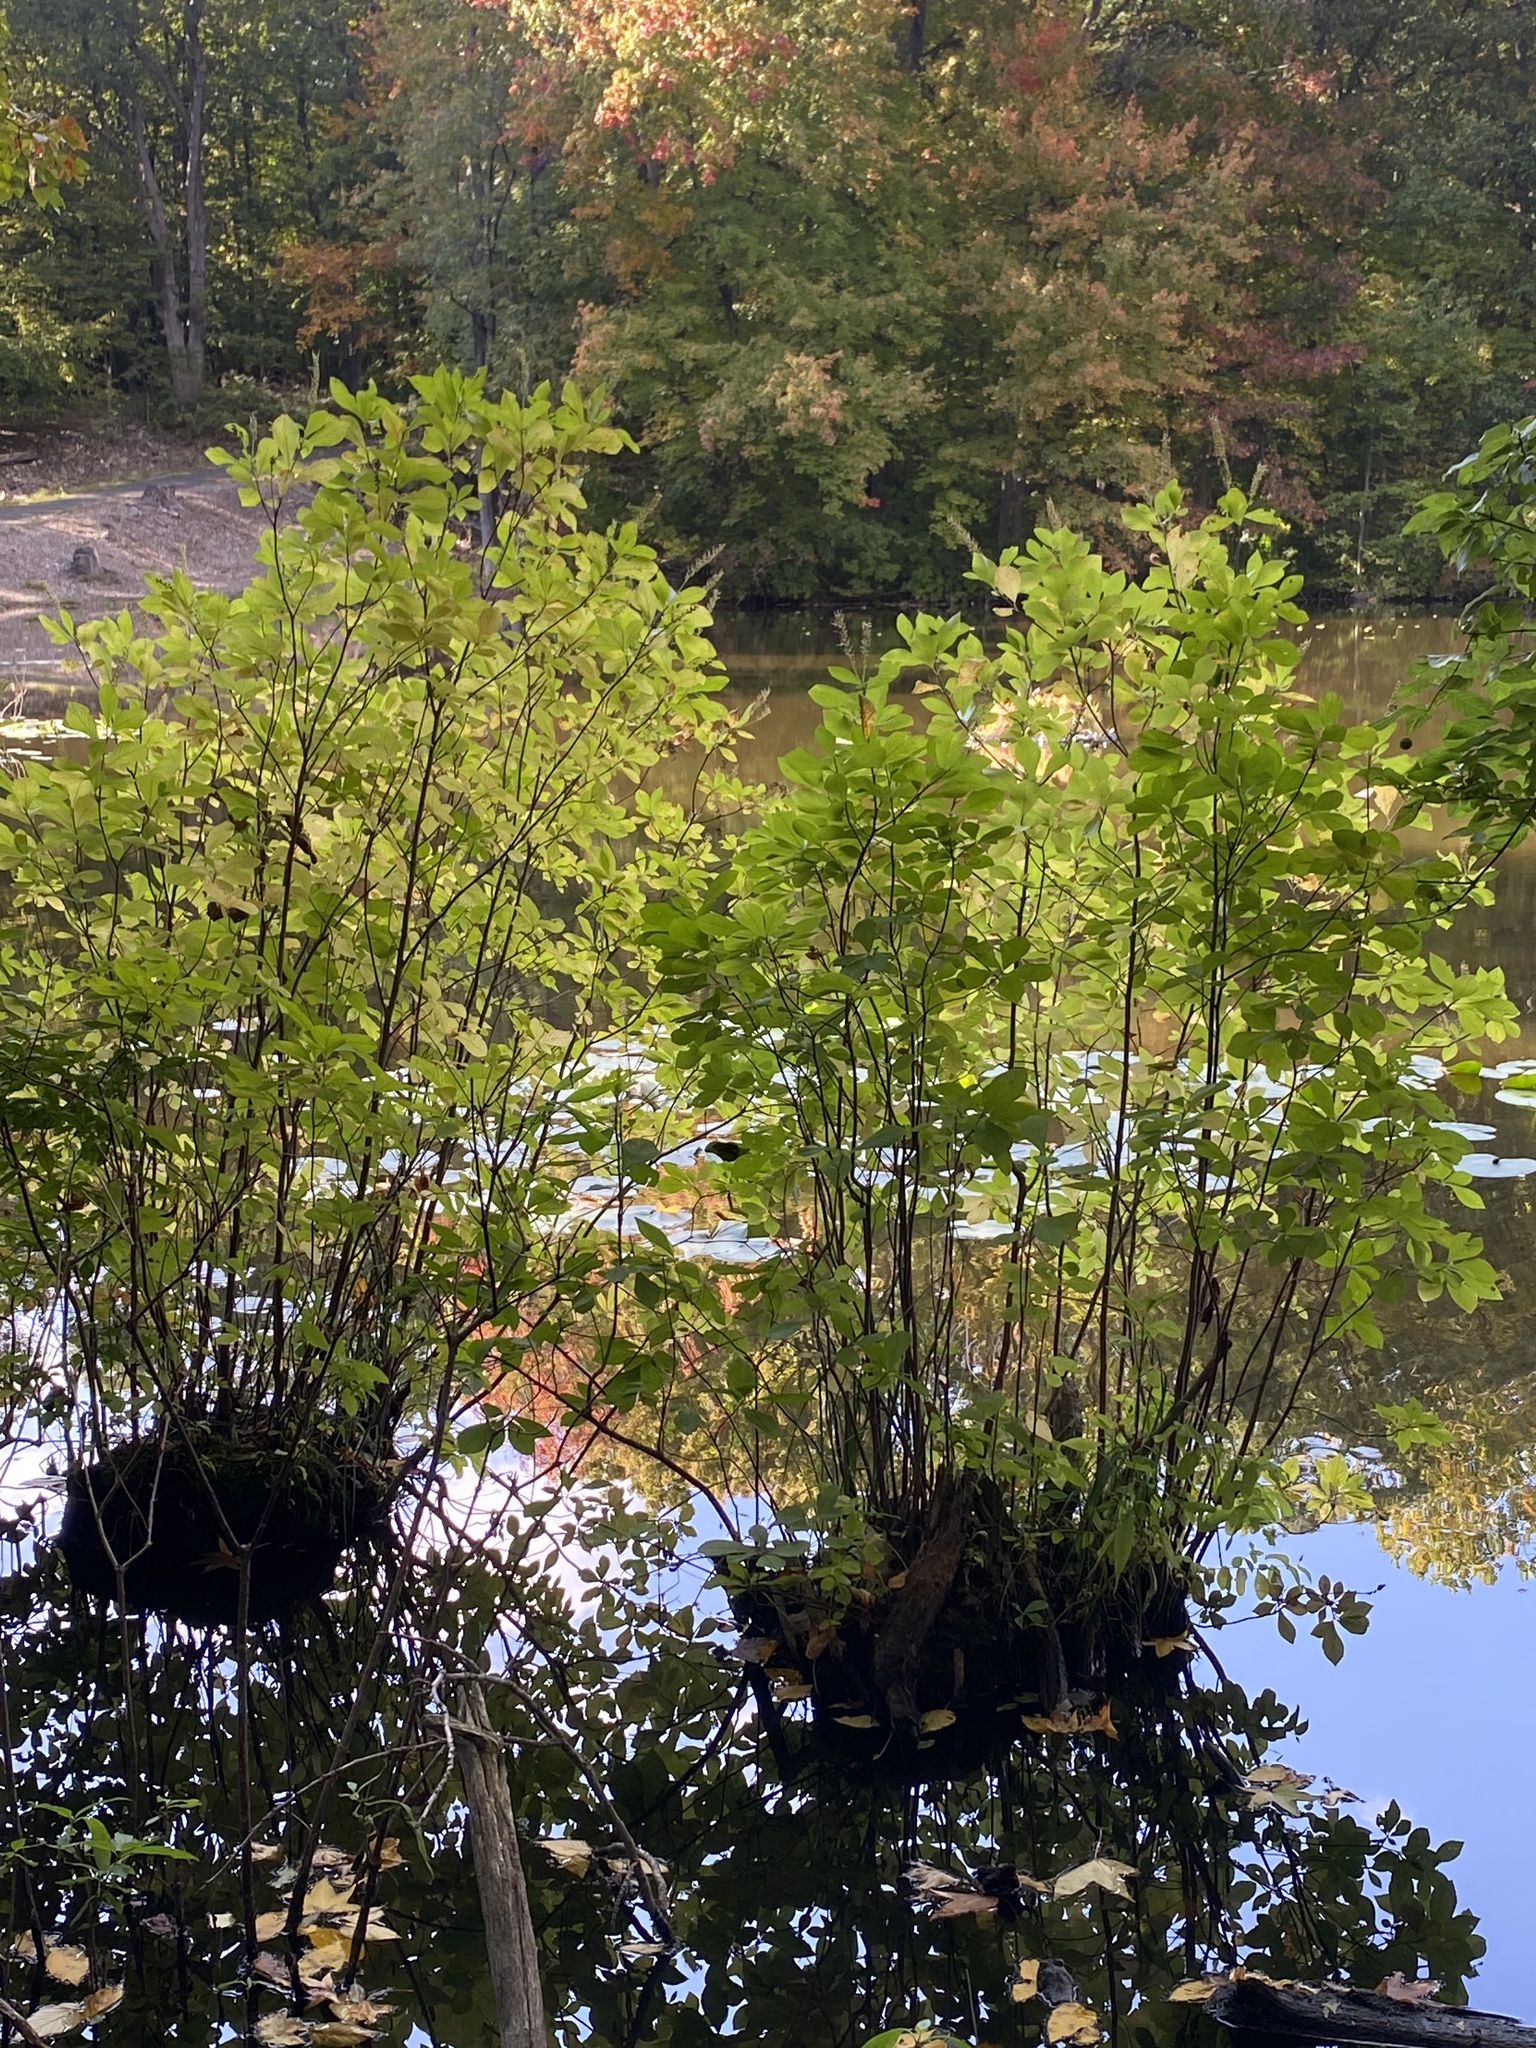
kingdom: Plantae
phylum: Tracheophyta
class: Magnoliopsida
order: Ericales
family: Clethraceae
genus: Clethra
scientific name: Clethra alnifolia
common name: Sweet pepperbush
